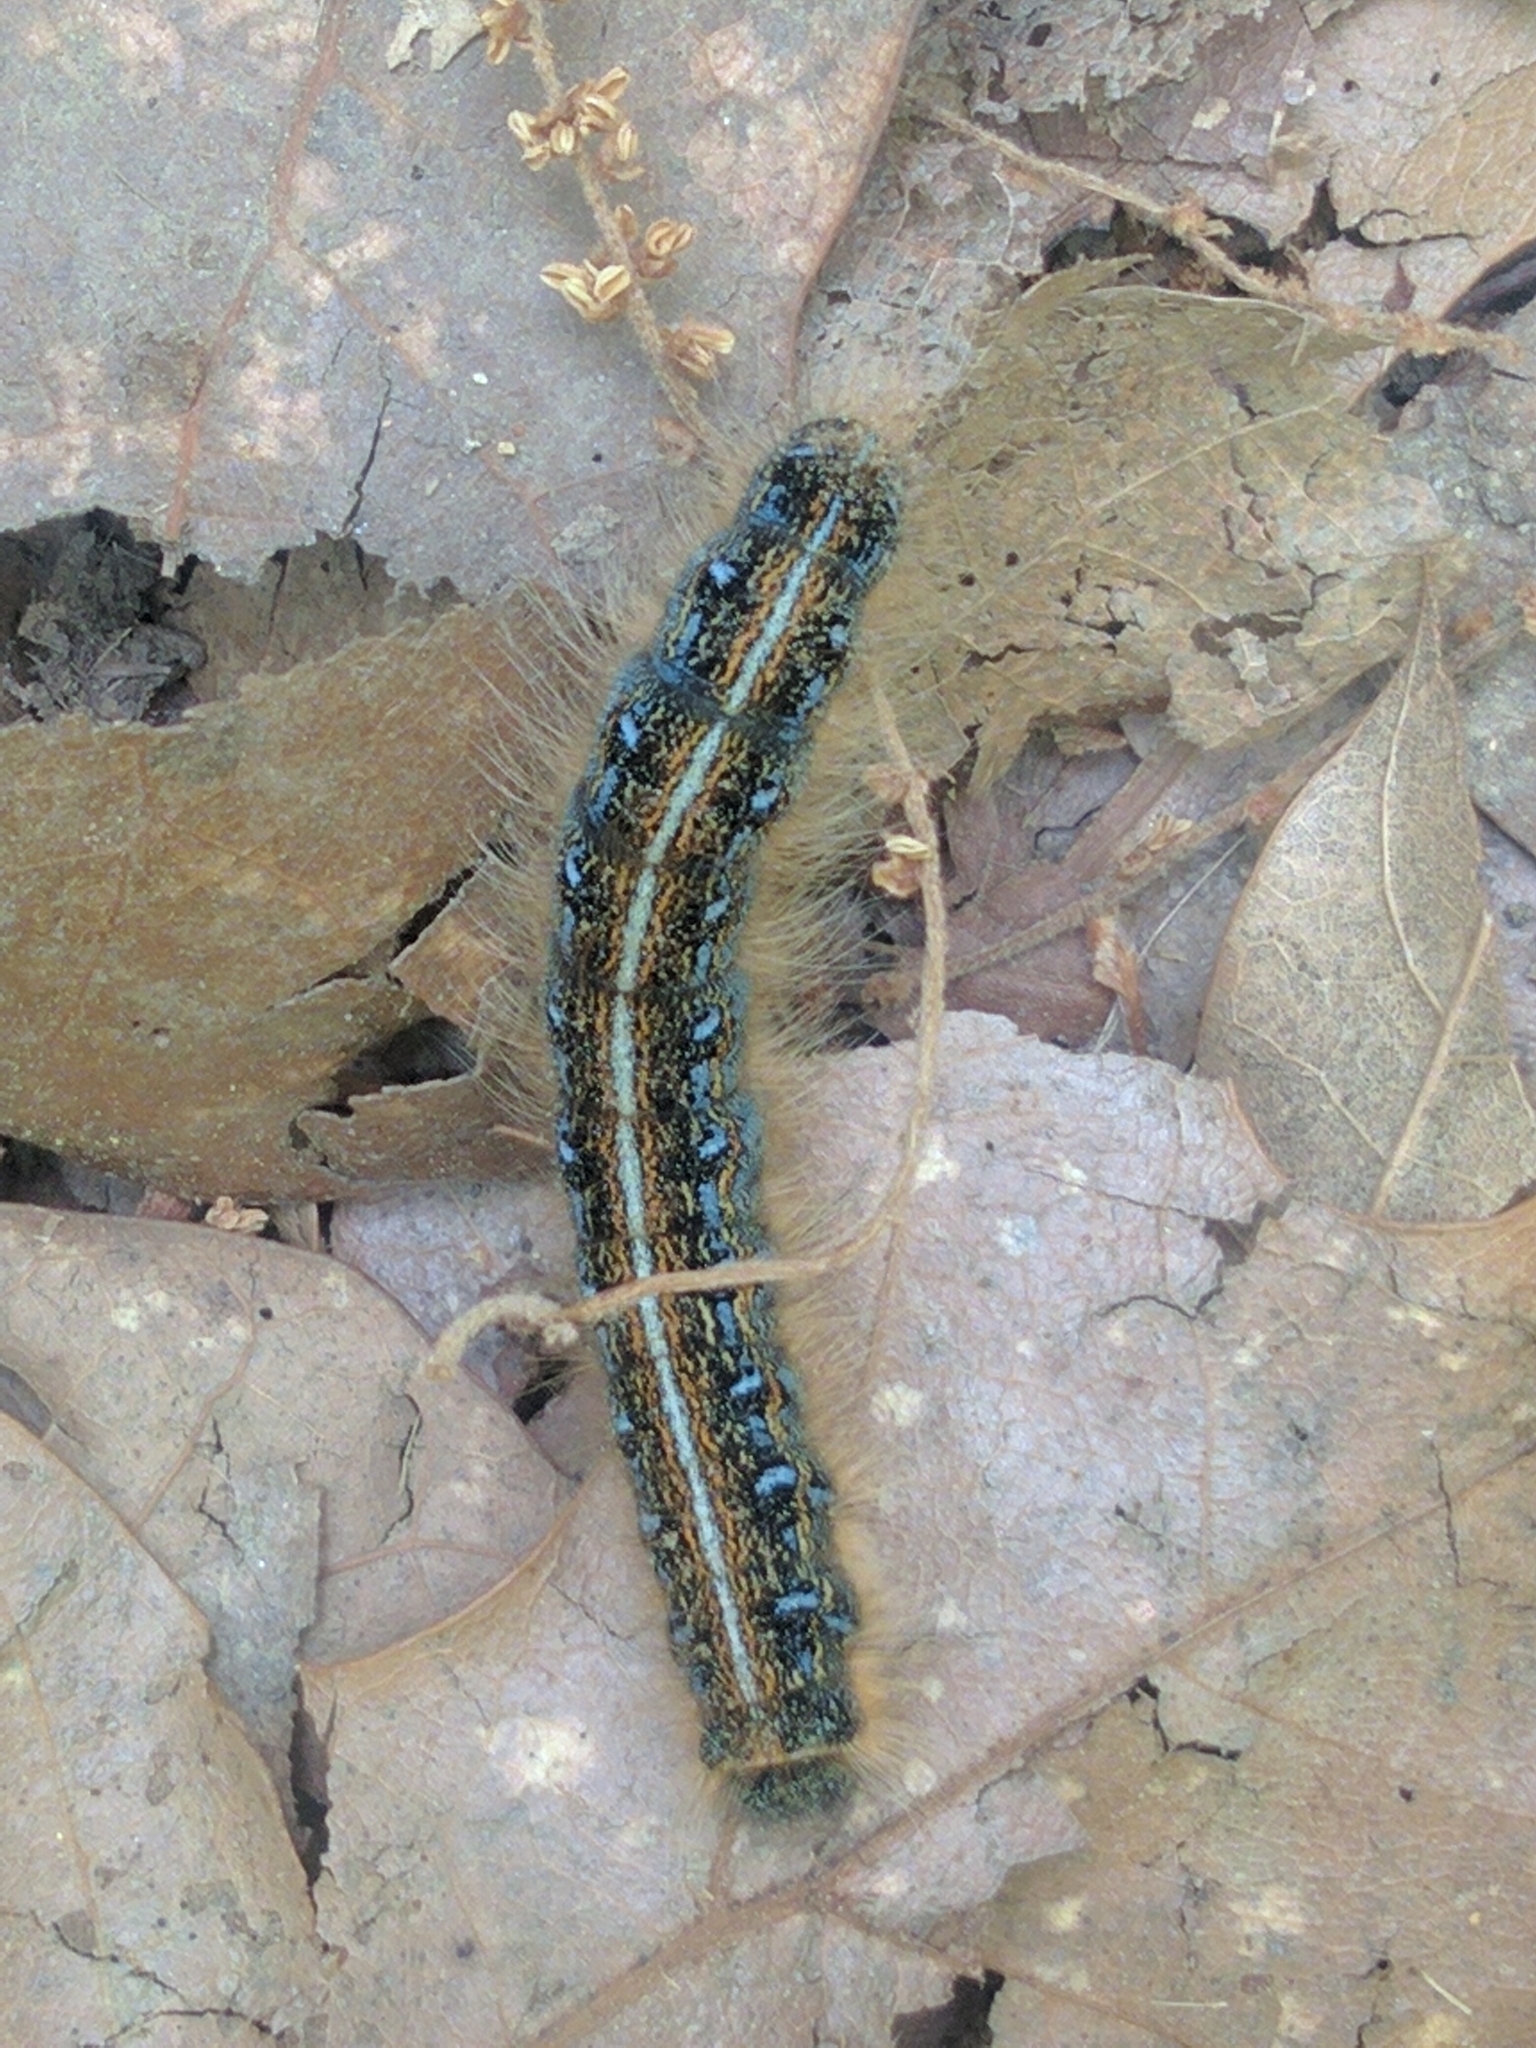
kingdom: Animalia
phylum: Arthropoda
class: Insecta
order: Lepidoptera
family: Lasiocampidae
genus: Malacosoma
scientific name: Malacosoma americana
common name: Eastern tent caterpillar moth
